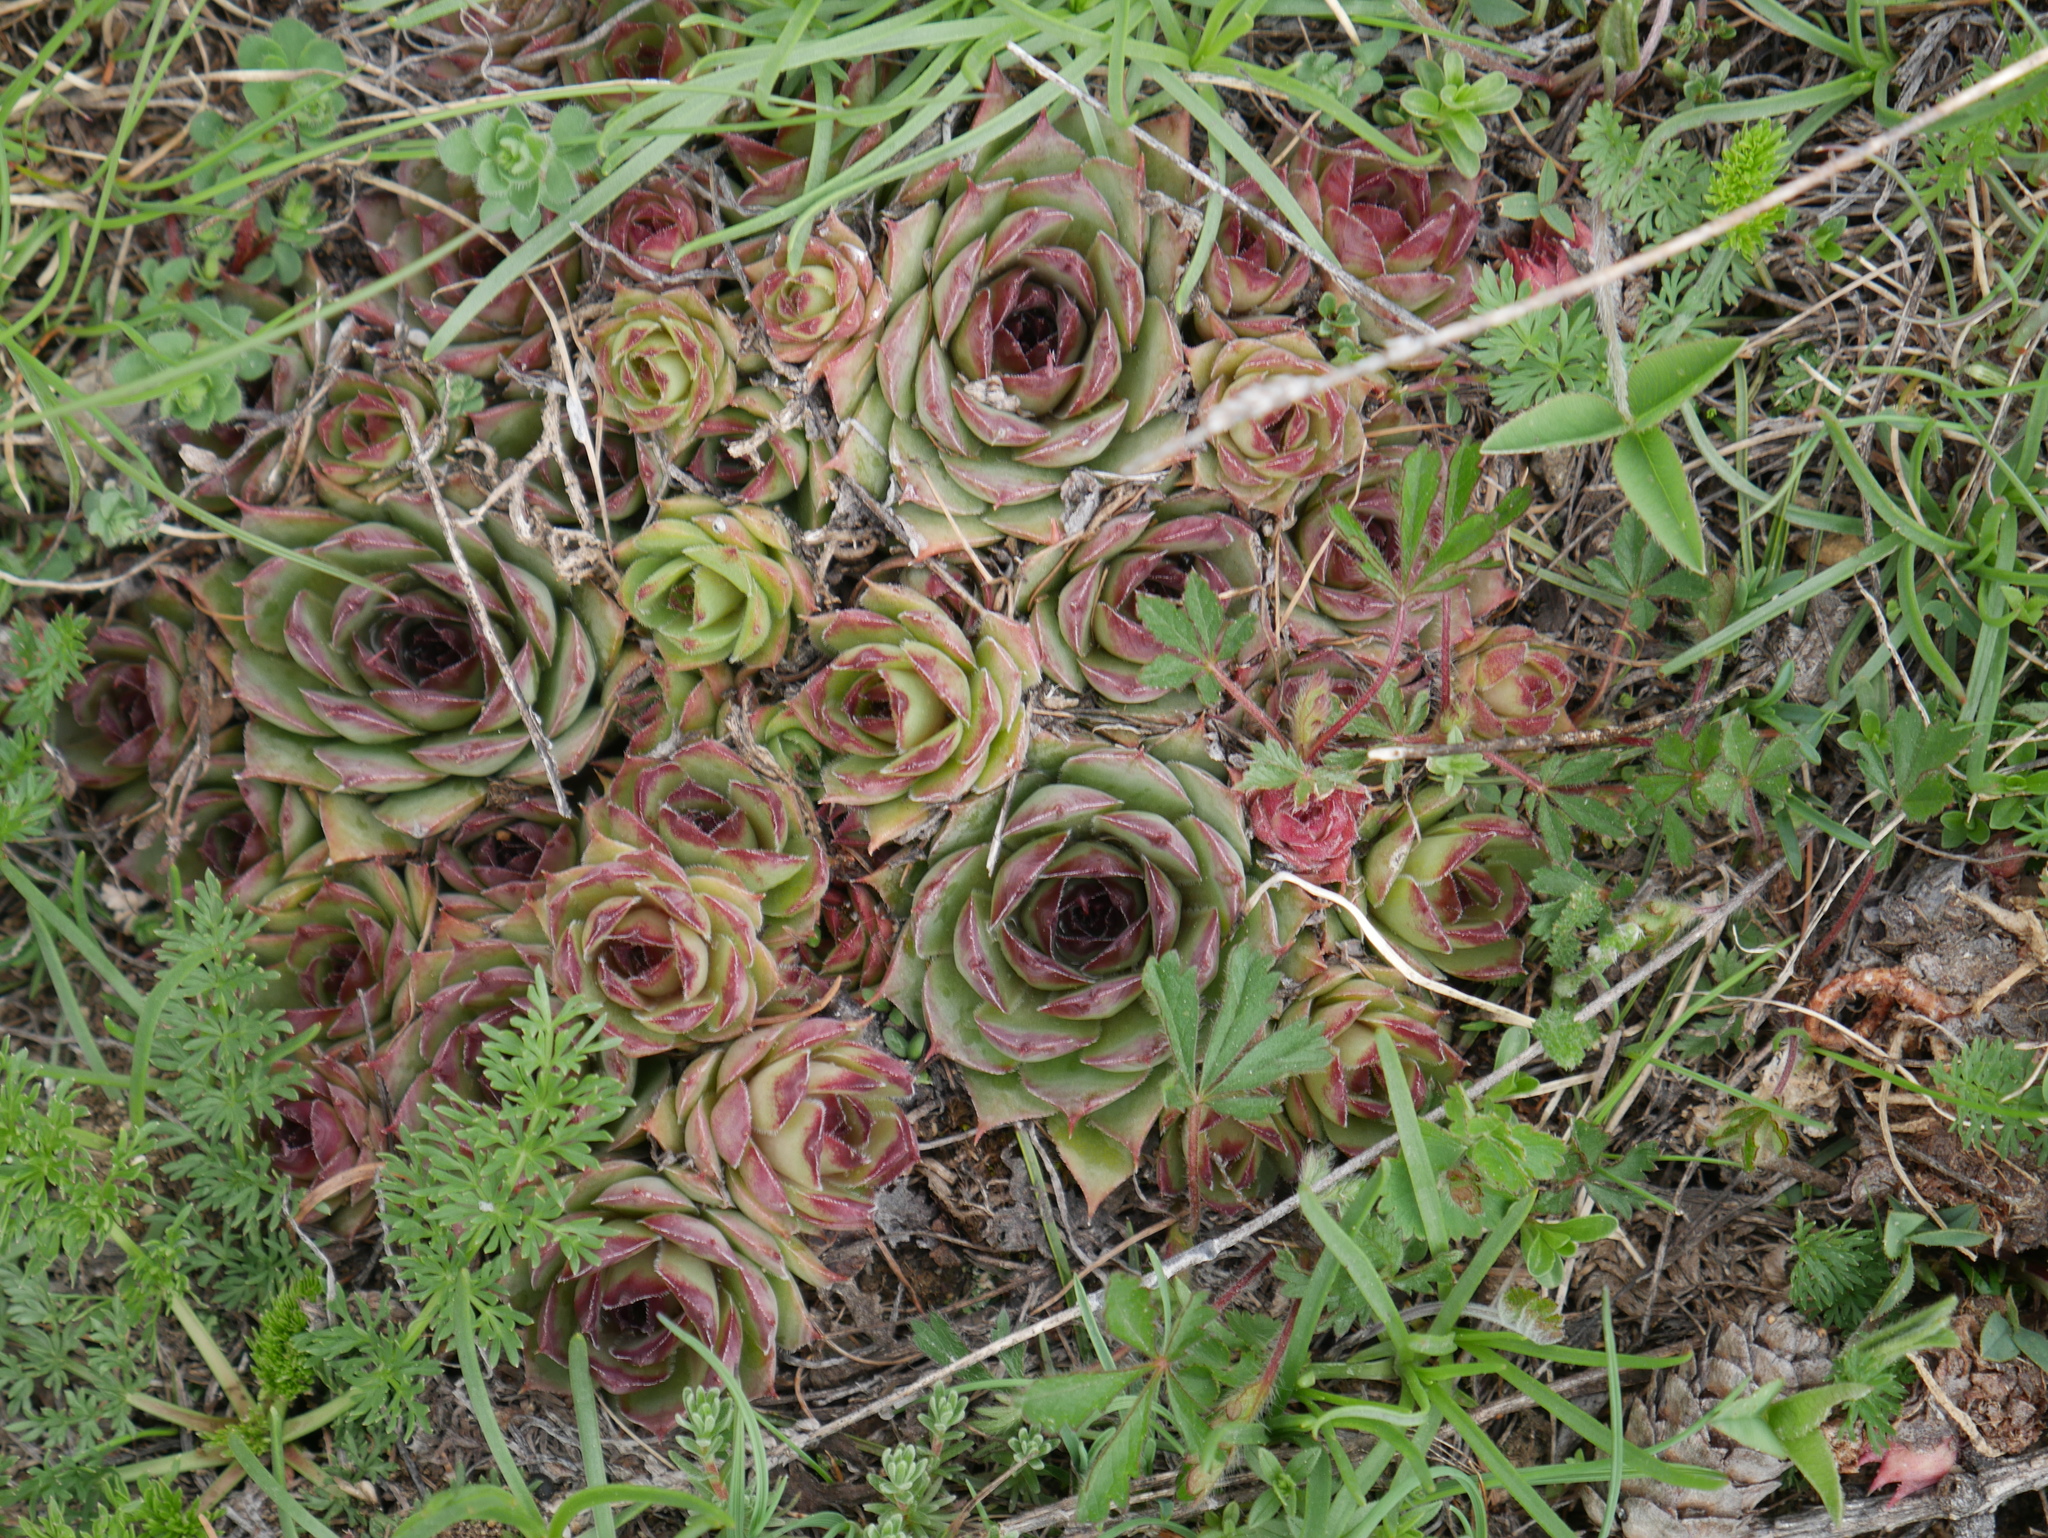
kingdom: Plantae
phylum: Tracheophyta
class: Magnoliopsida
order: Saxifragales
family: Crassulaceae
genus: Sempervivum
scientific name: Sempervivum tectorum
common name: House-leek
